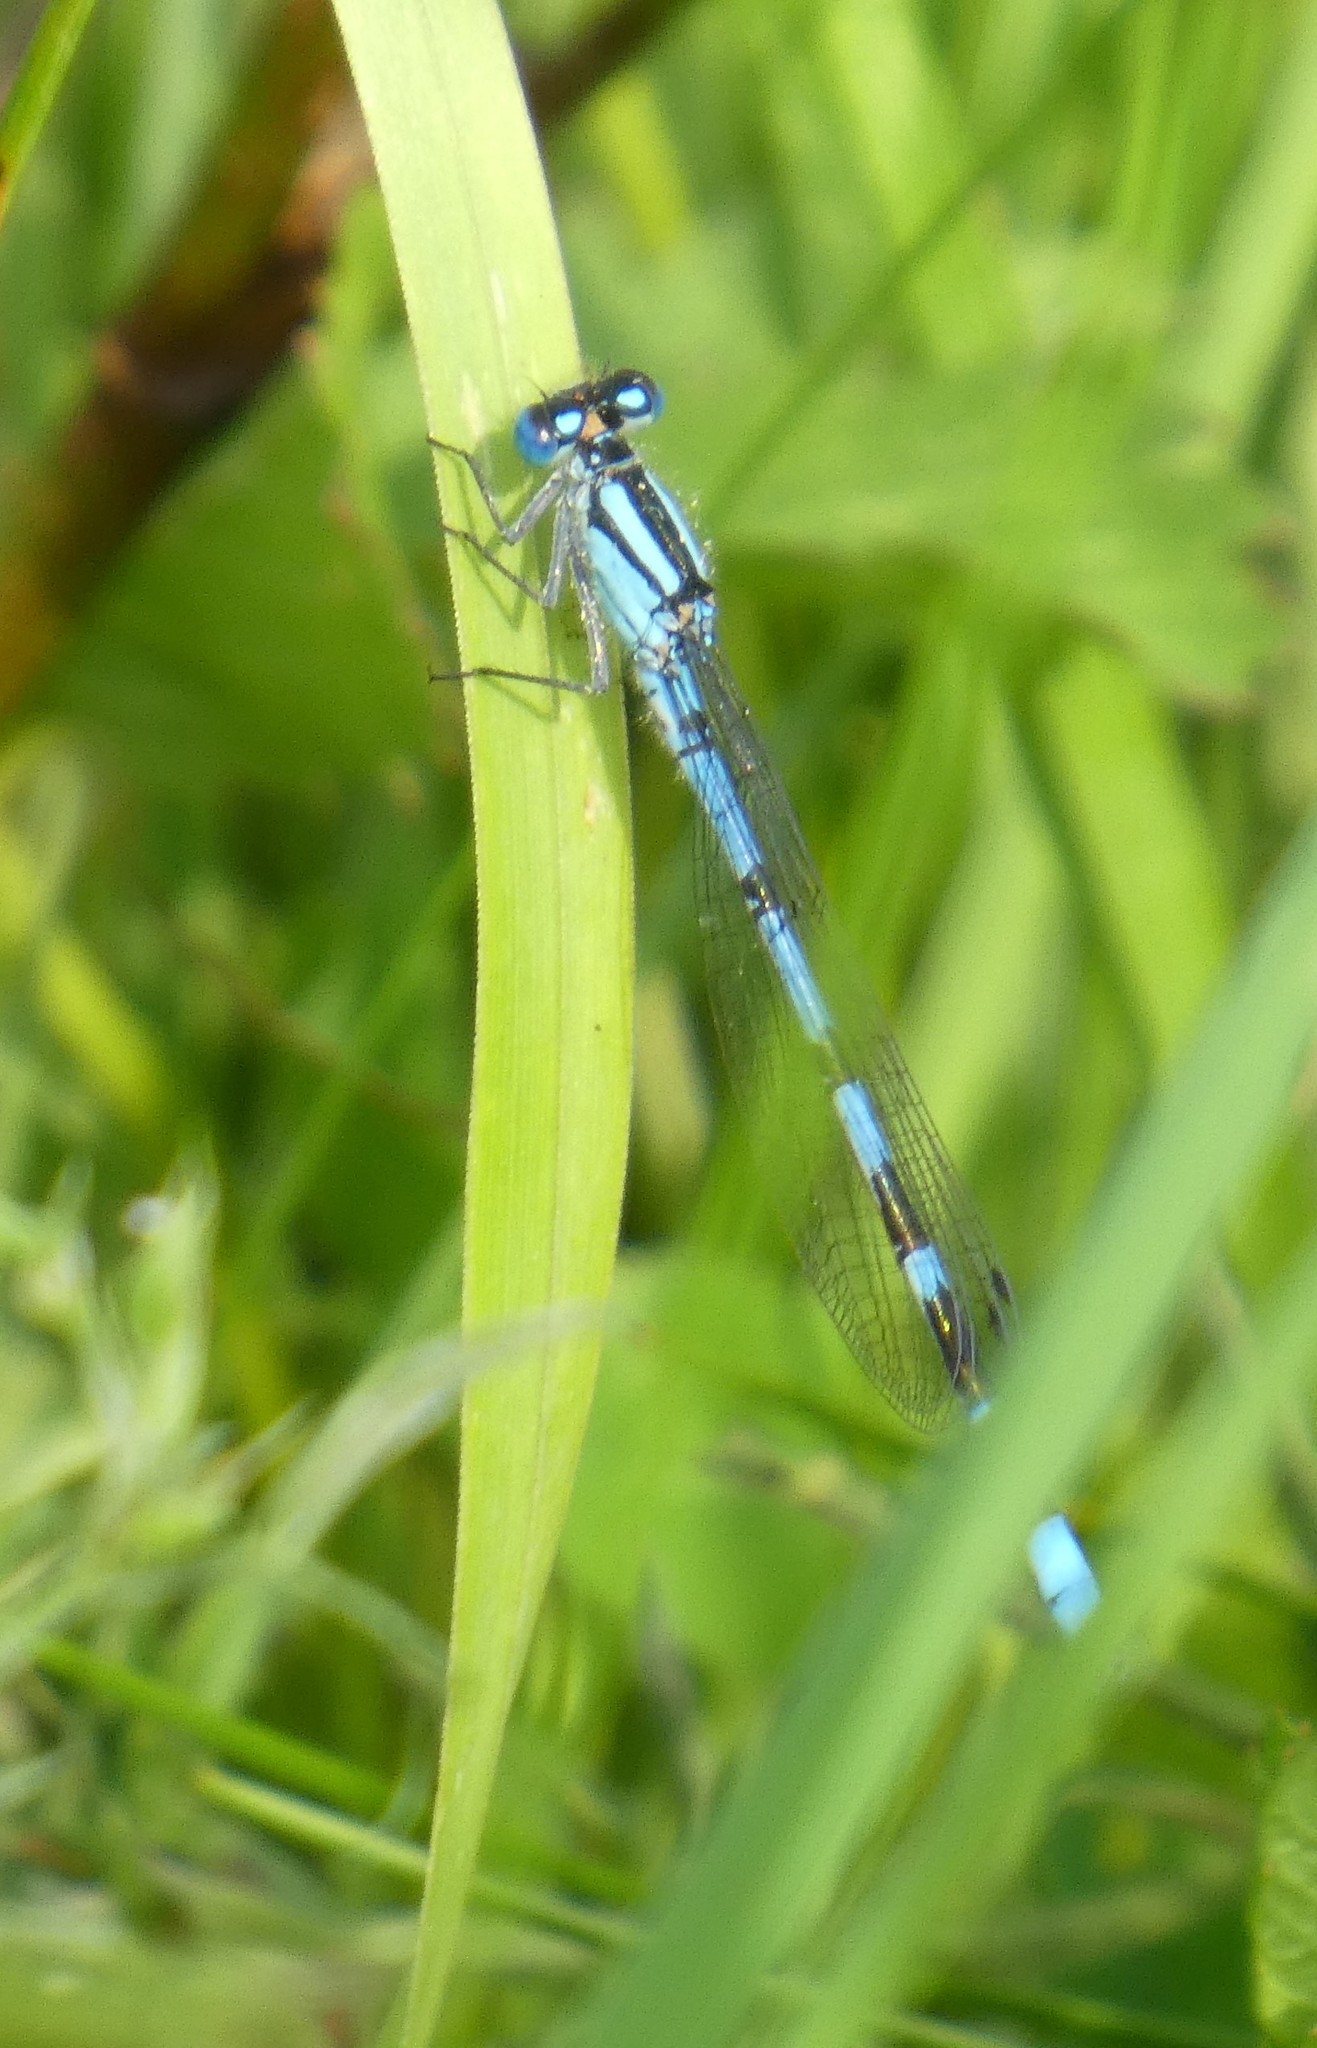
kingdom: Animalia
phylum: Arthropoda
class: Insecta
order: Odonata
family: Coenagrionidae
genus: Enallagma
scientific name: Enallagma cyathigerum
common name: Common blue damselfly
